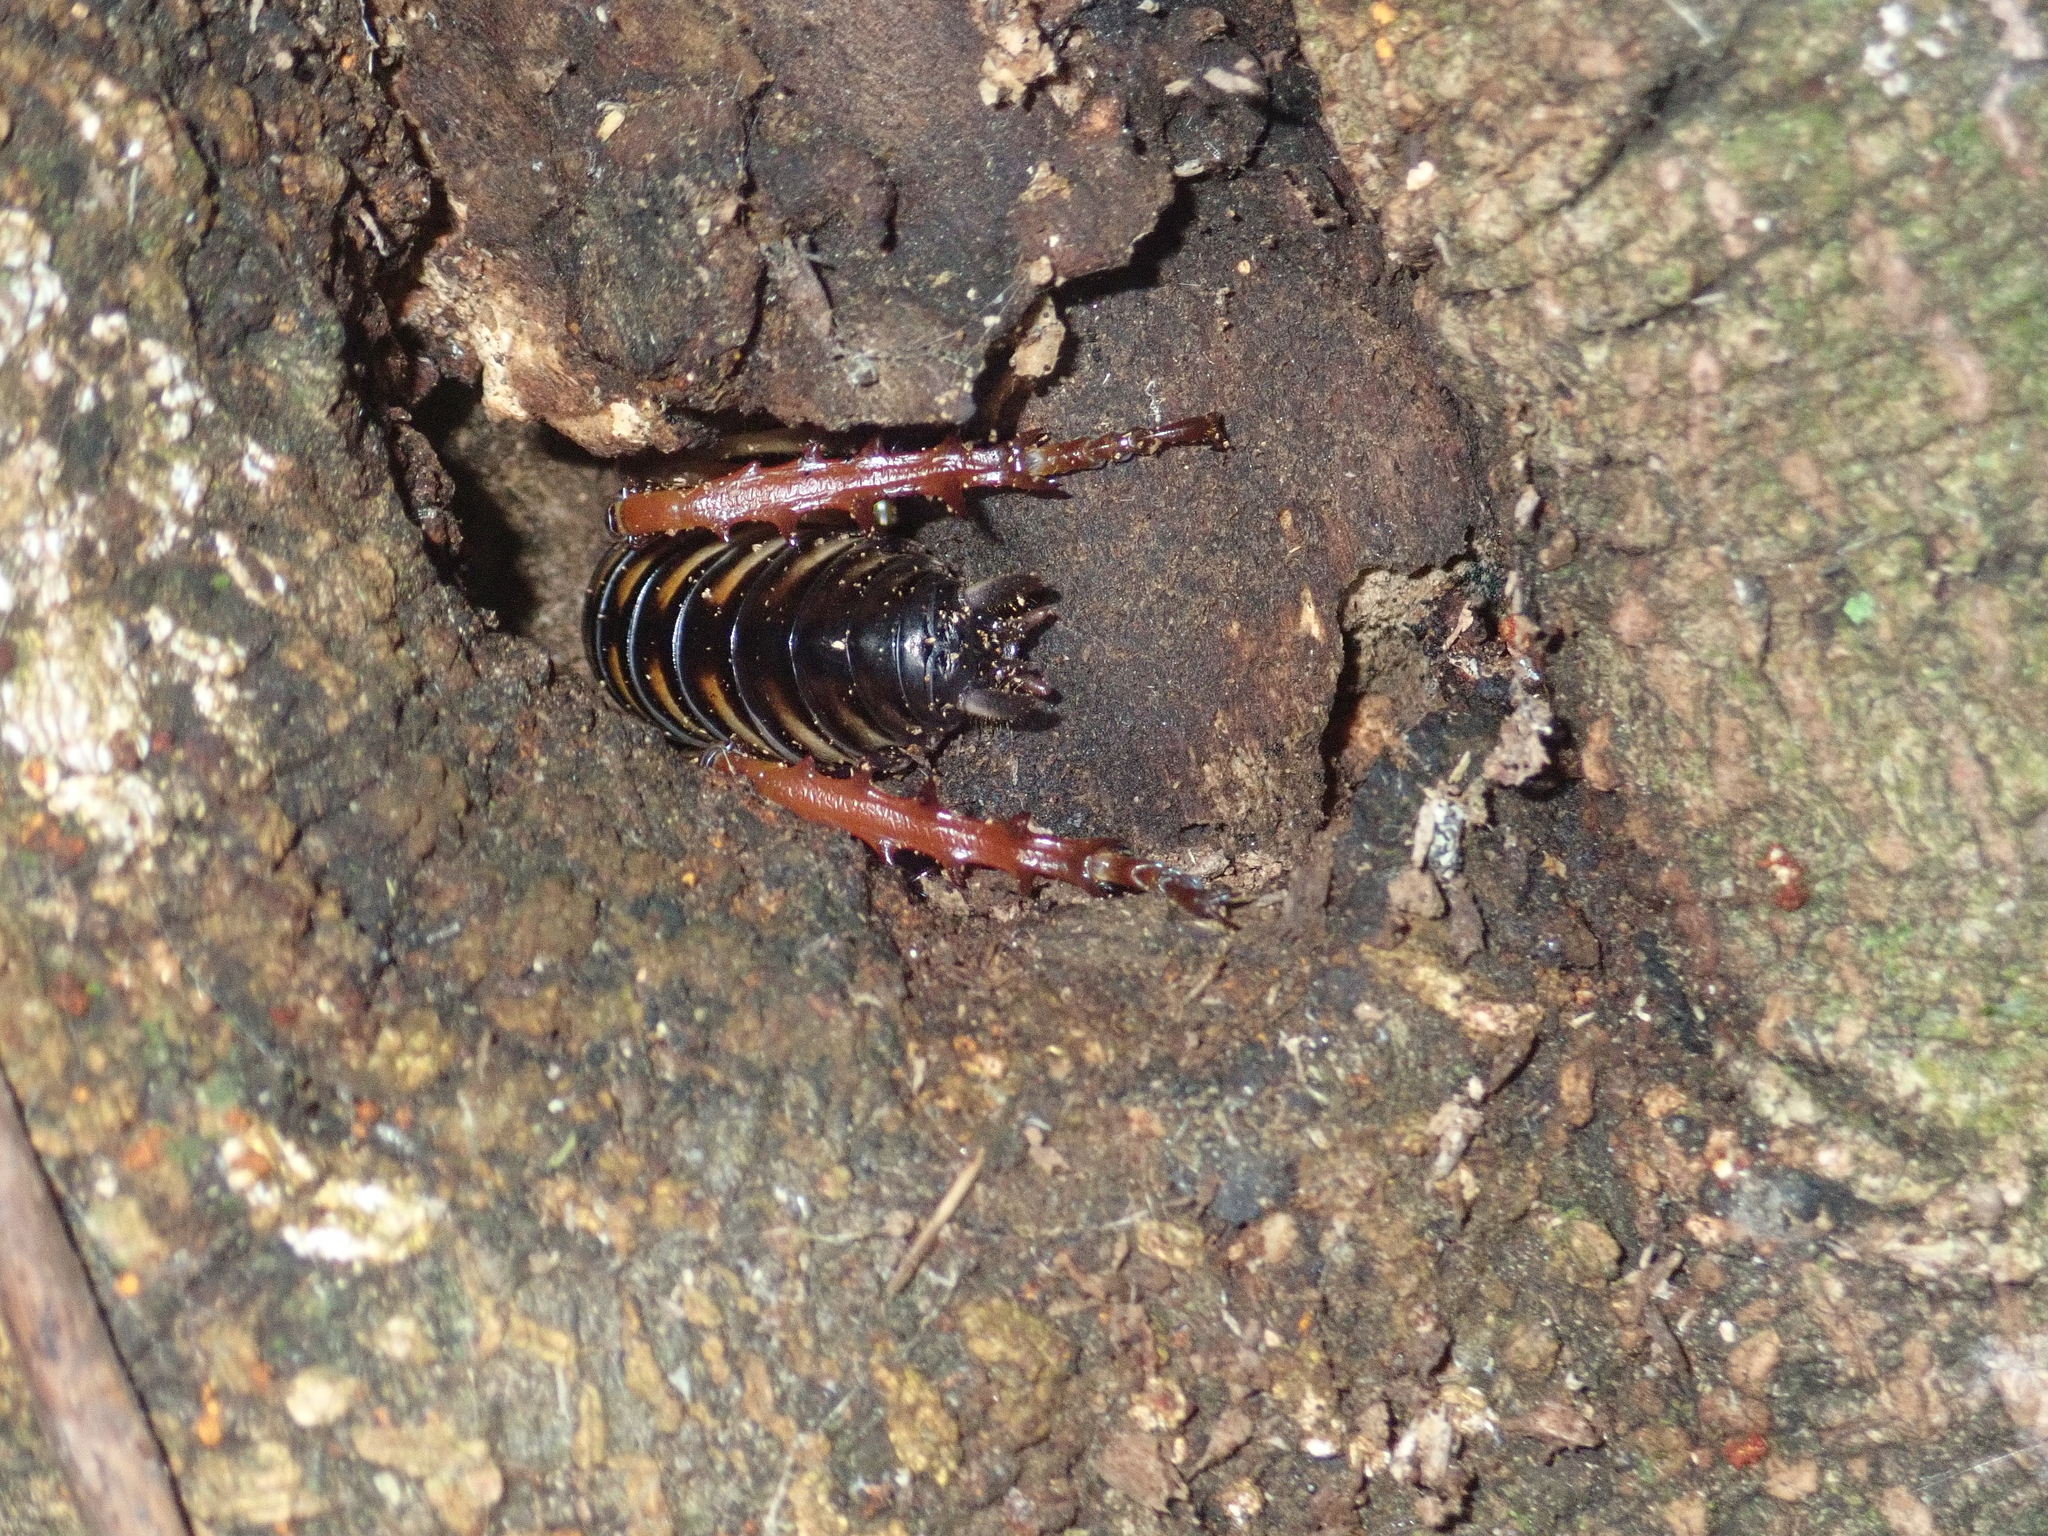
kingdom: Animalia
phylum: Arthropoda
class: Insecta
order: Orthoptera
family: Anostostomatidae
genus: Hemideina
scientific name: Hemideina crassidens
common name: Wellington tree weta
